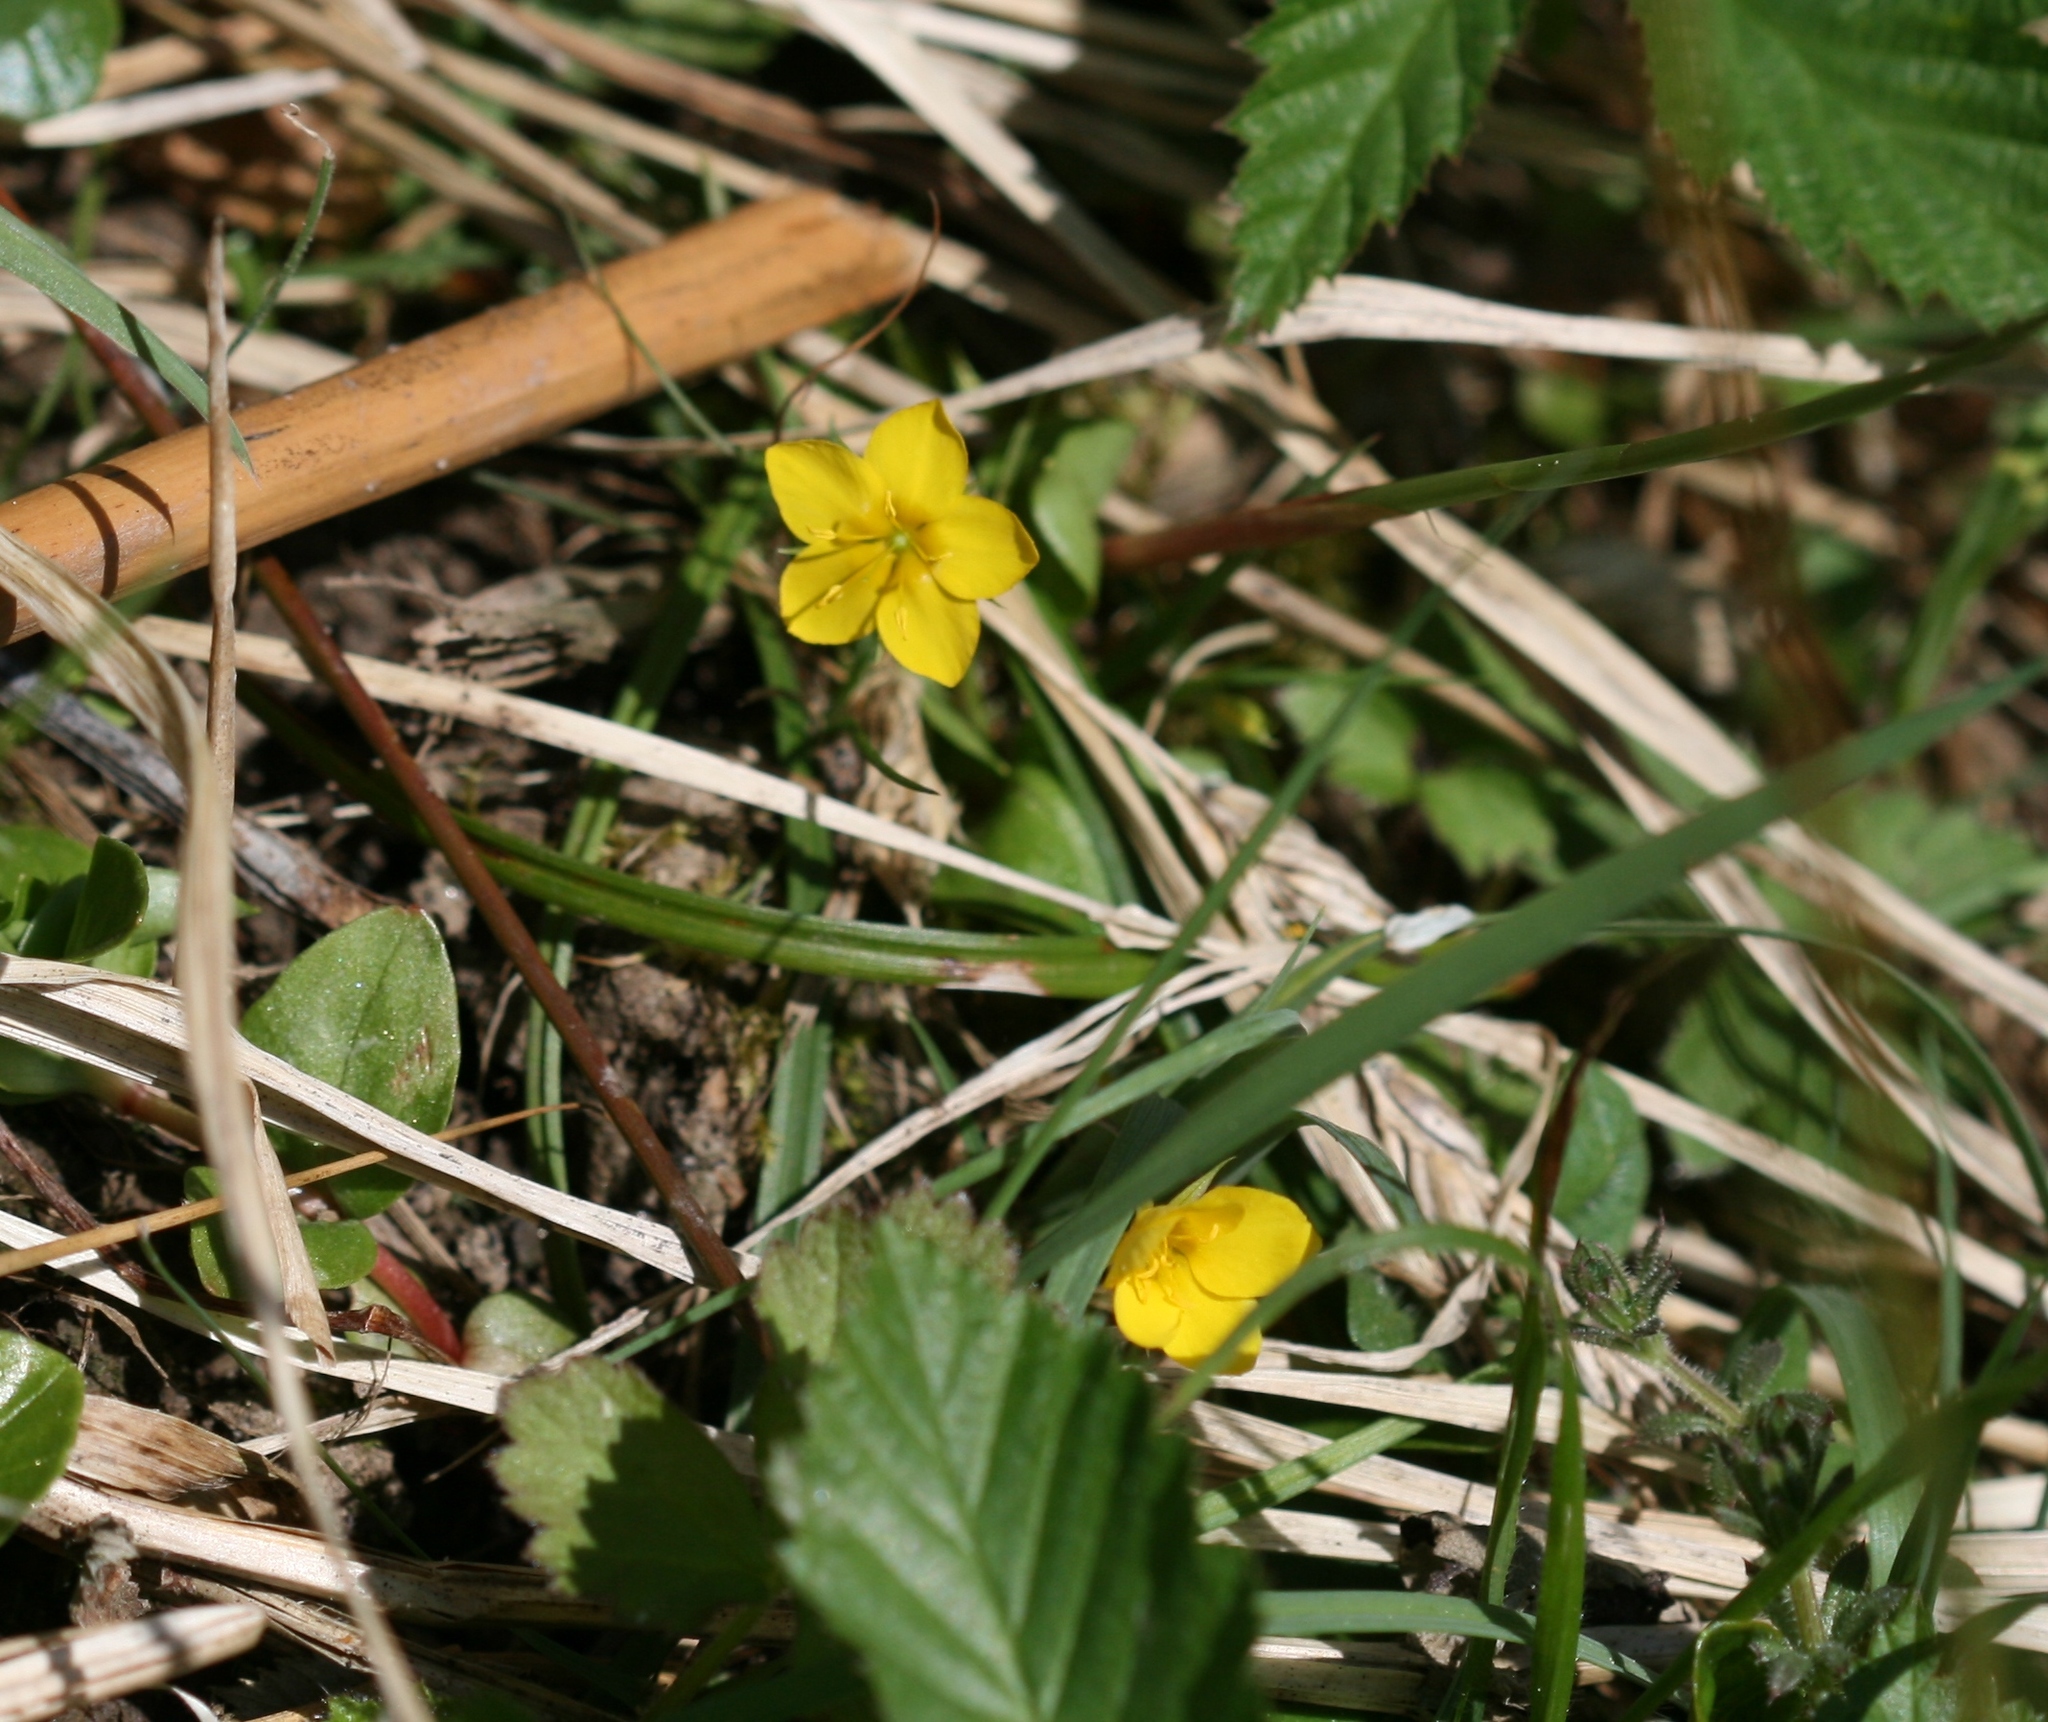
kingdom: Plantae
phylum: Tracheophyta
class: Magnoliopsida
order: Ericales
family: Primulaceae
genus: Lysimachia
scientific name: Lysimachia nemorum
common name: Yellow pimpernel
